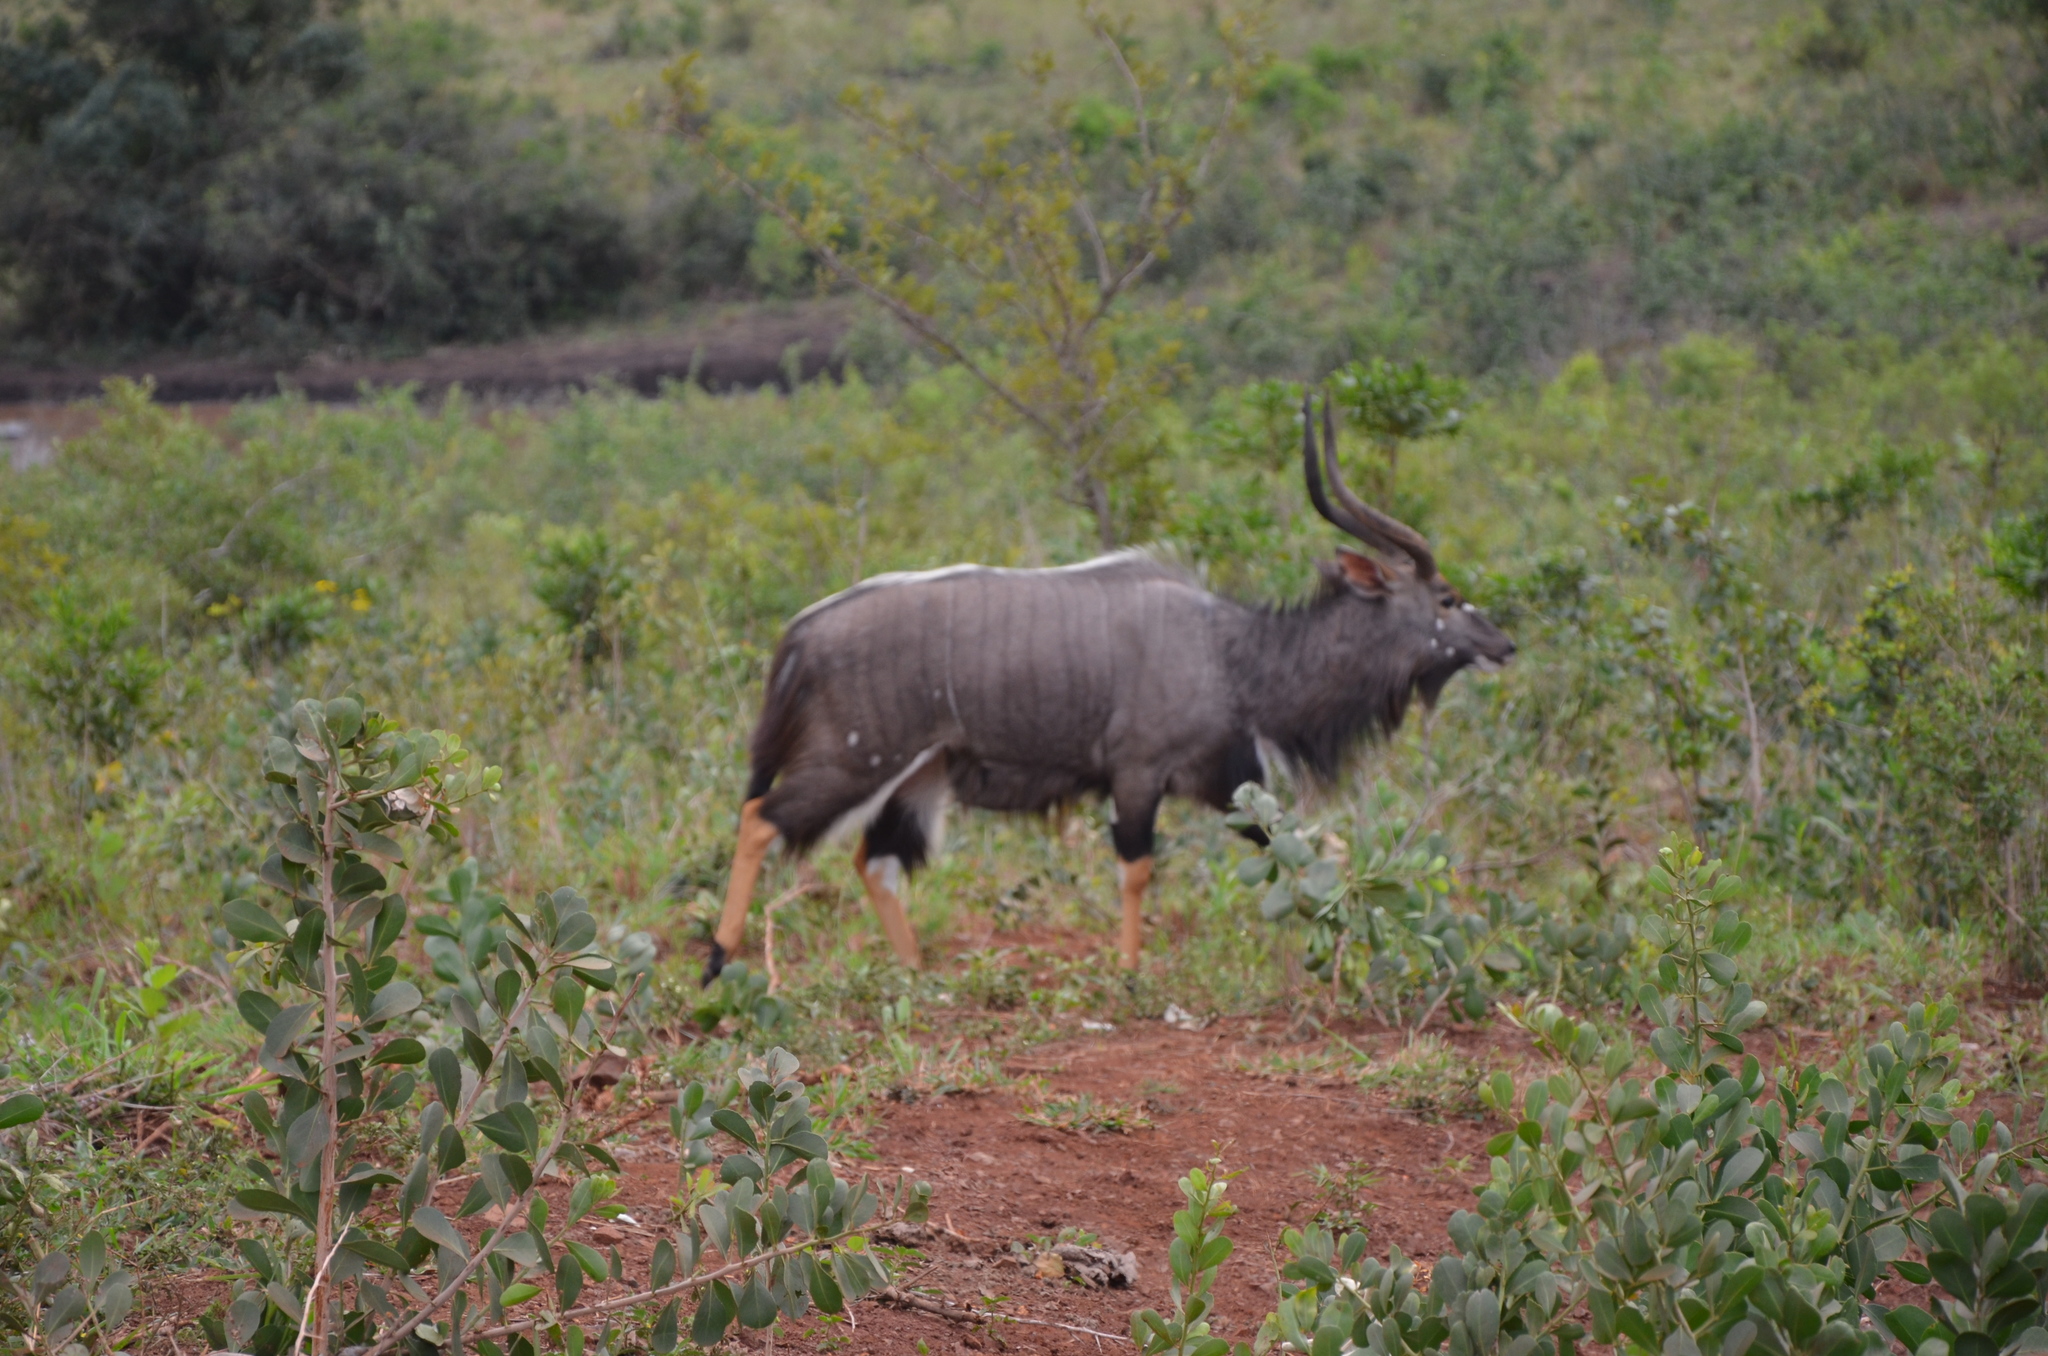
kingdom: Animalia
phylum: Chordata
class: Mammalia
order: Artiodactyla
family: Bovidae
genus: Tragelaphus
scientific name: Tragelaphus angasii
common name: Nyala
